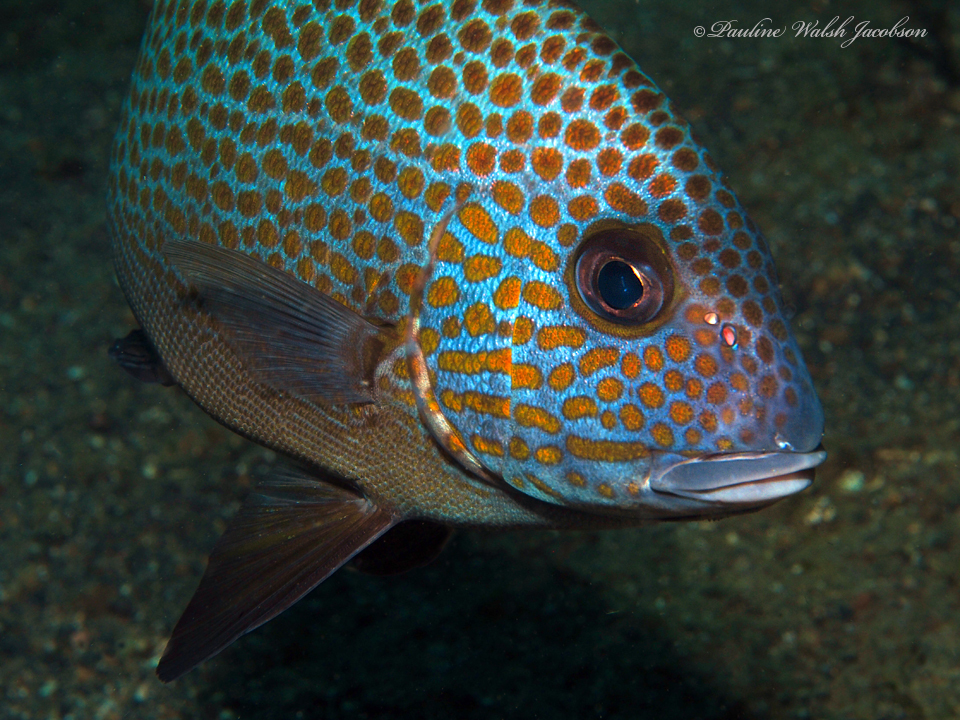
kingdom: Animalia
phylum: Chordata
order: Perciformes
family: Haemulidae
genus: Plectorhinchus
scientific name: Plectorhinchus flavomaculatus
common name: Netted sweetlips
